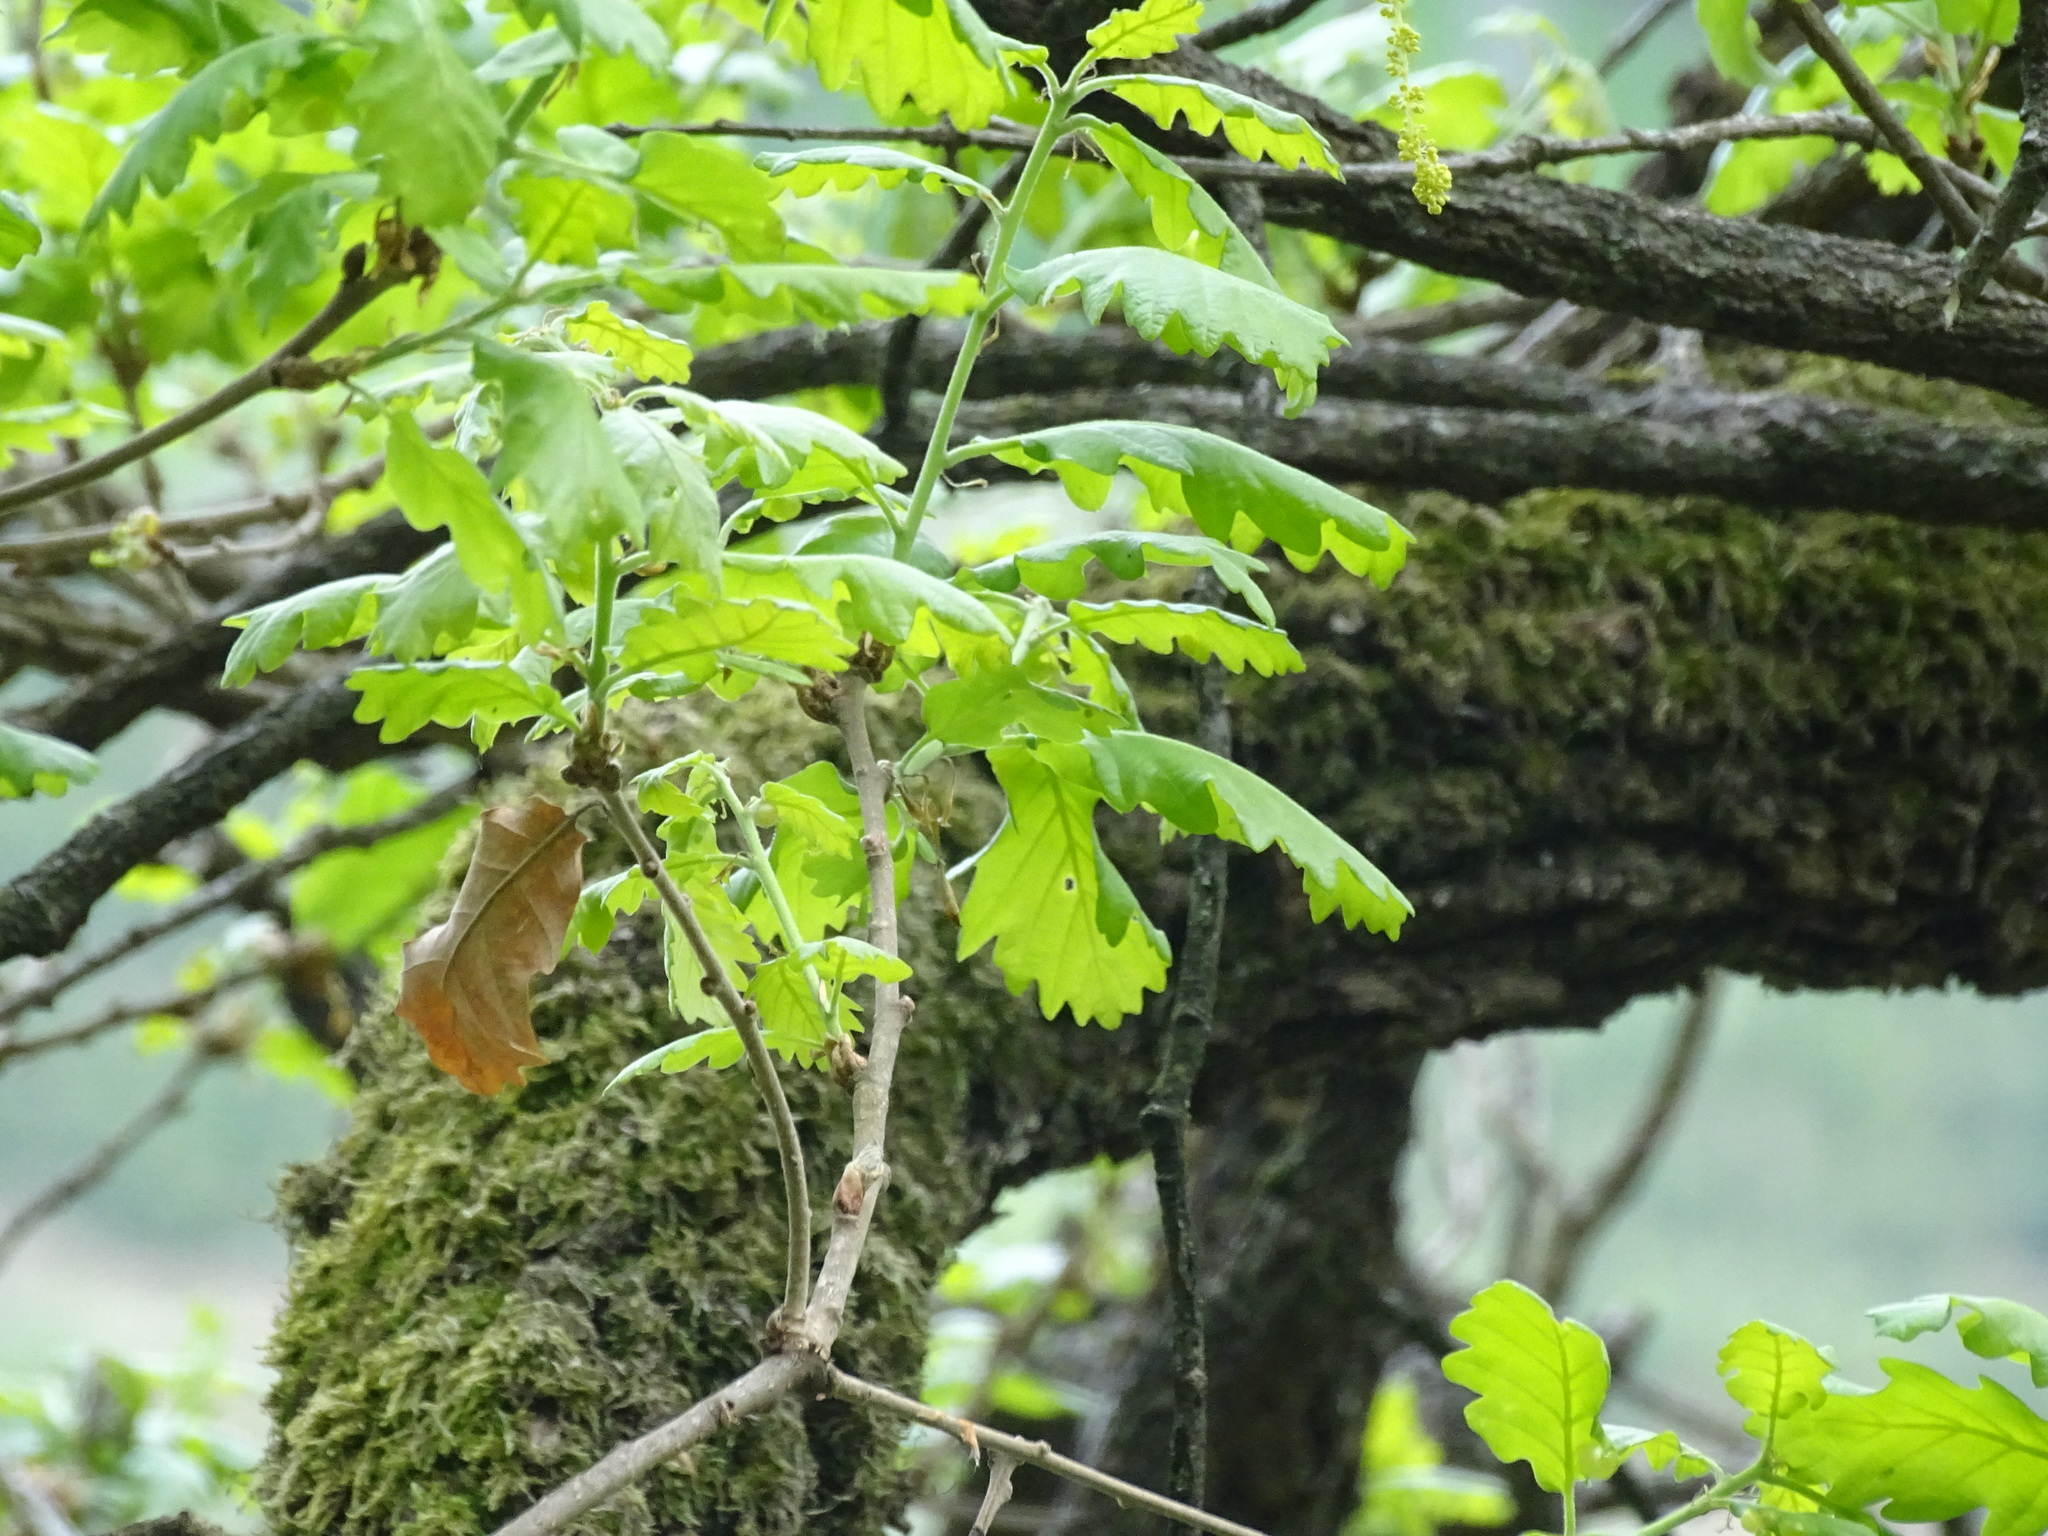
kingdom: Plantae
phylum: Tracheophyta
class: Magnoliopsida
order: Fagales
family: Fagaceae
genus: Quercus
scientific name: Quercus pubescens
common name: Downy oak
